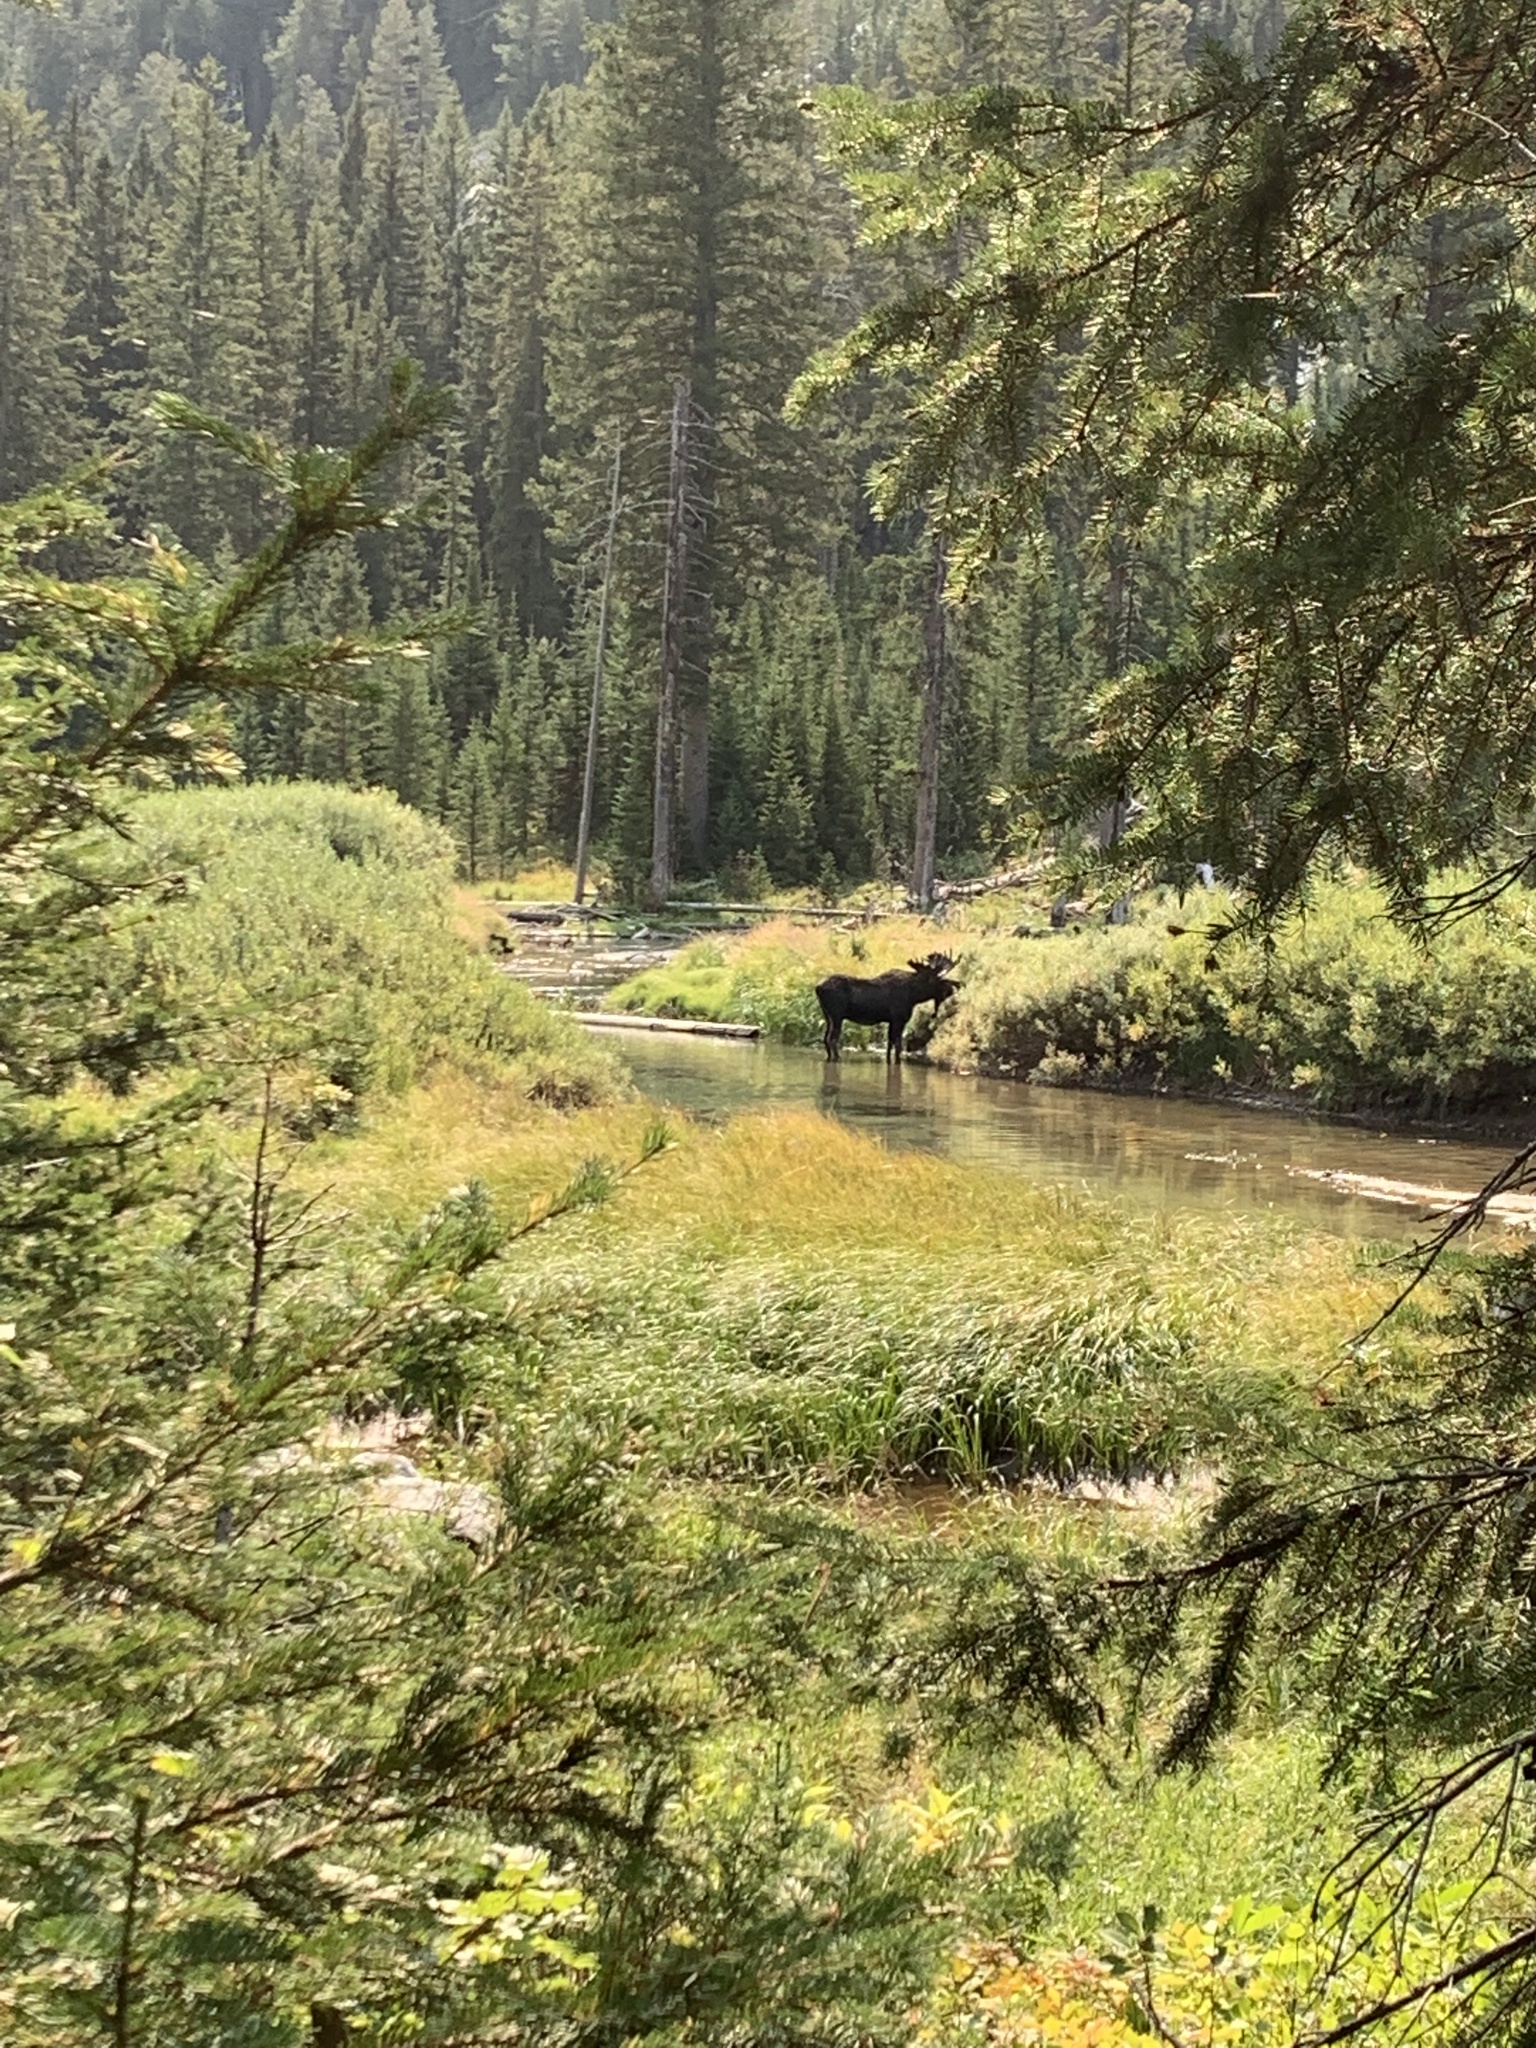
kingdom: Animalia
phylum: Chordata
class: Mammalia
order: Artiodactyla
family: Cervidae
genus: Alces
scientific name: Alces alces
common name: Moose
